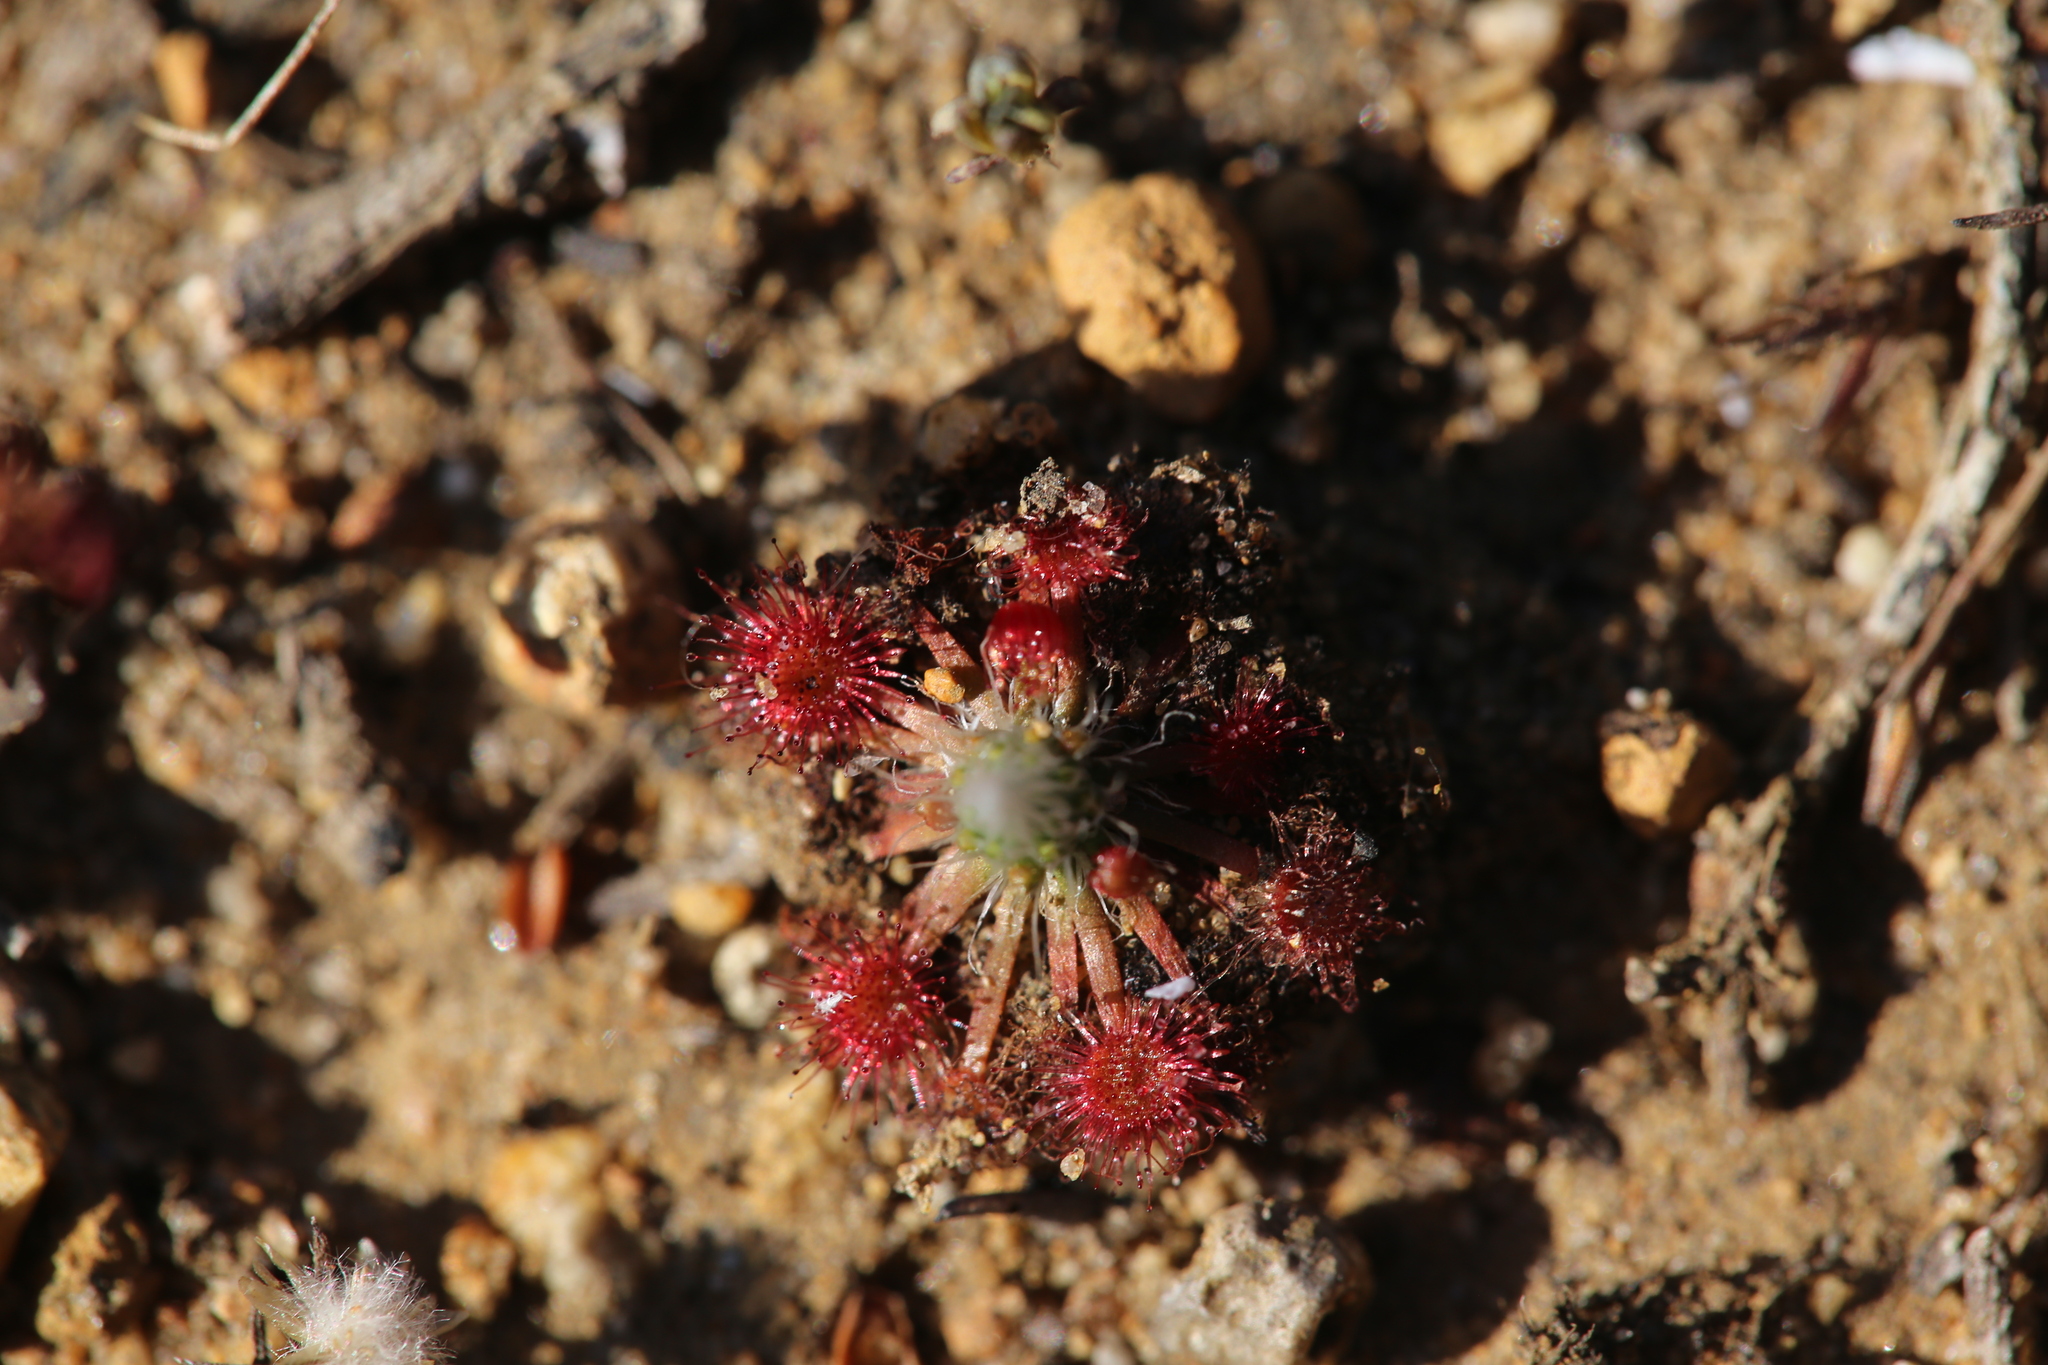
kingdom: Plantae
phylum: Tracheophyta
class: Magnoliopsida
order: Caryophyllales
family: Droseraceae
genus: Drosera
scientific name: Drosera spilos
